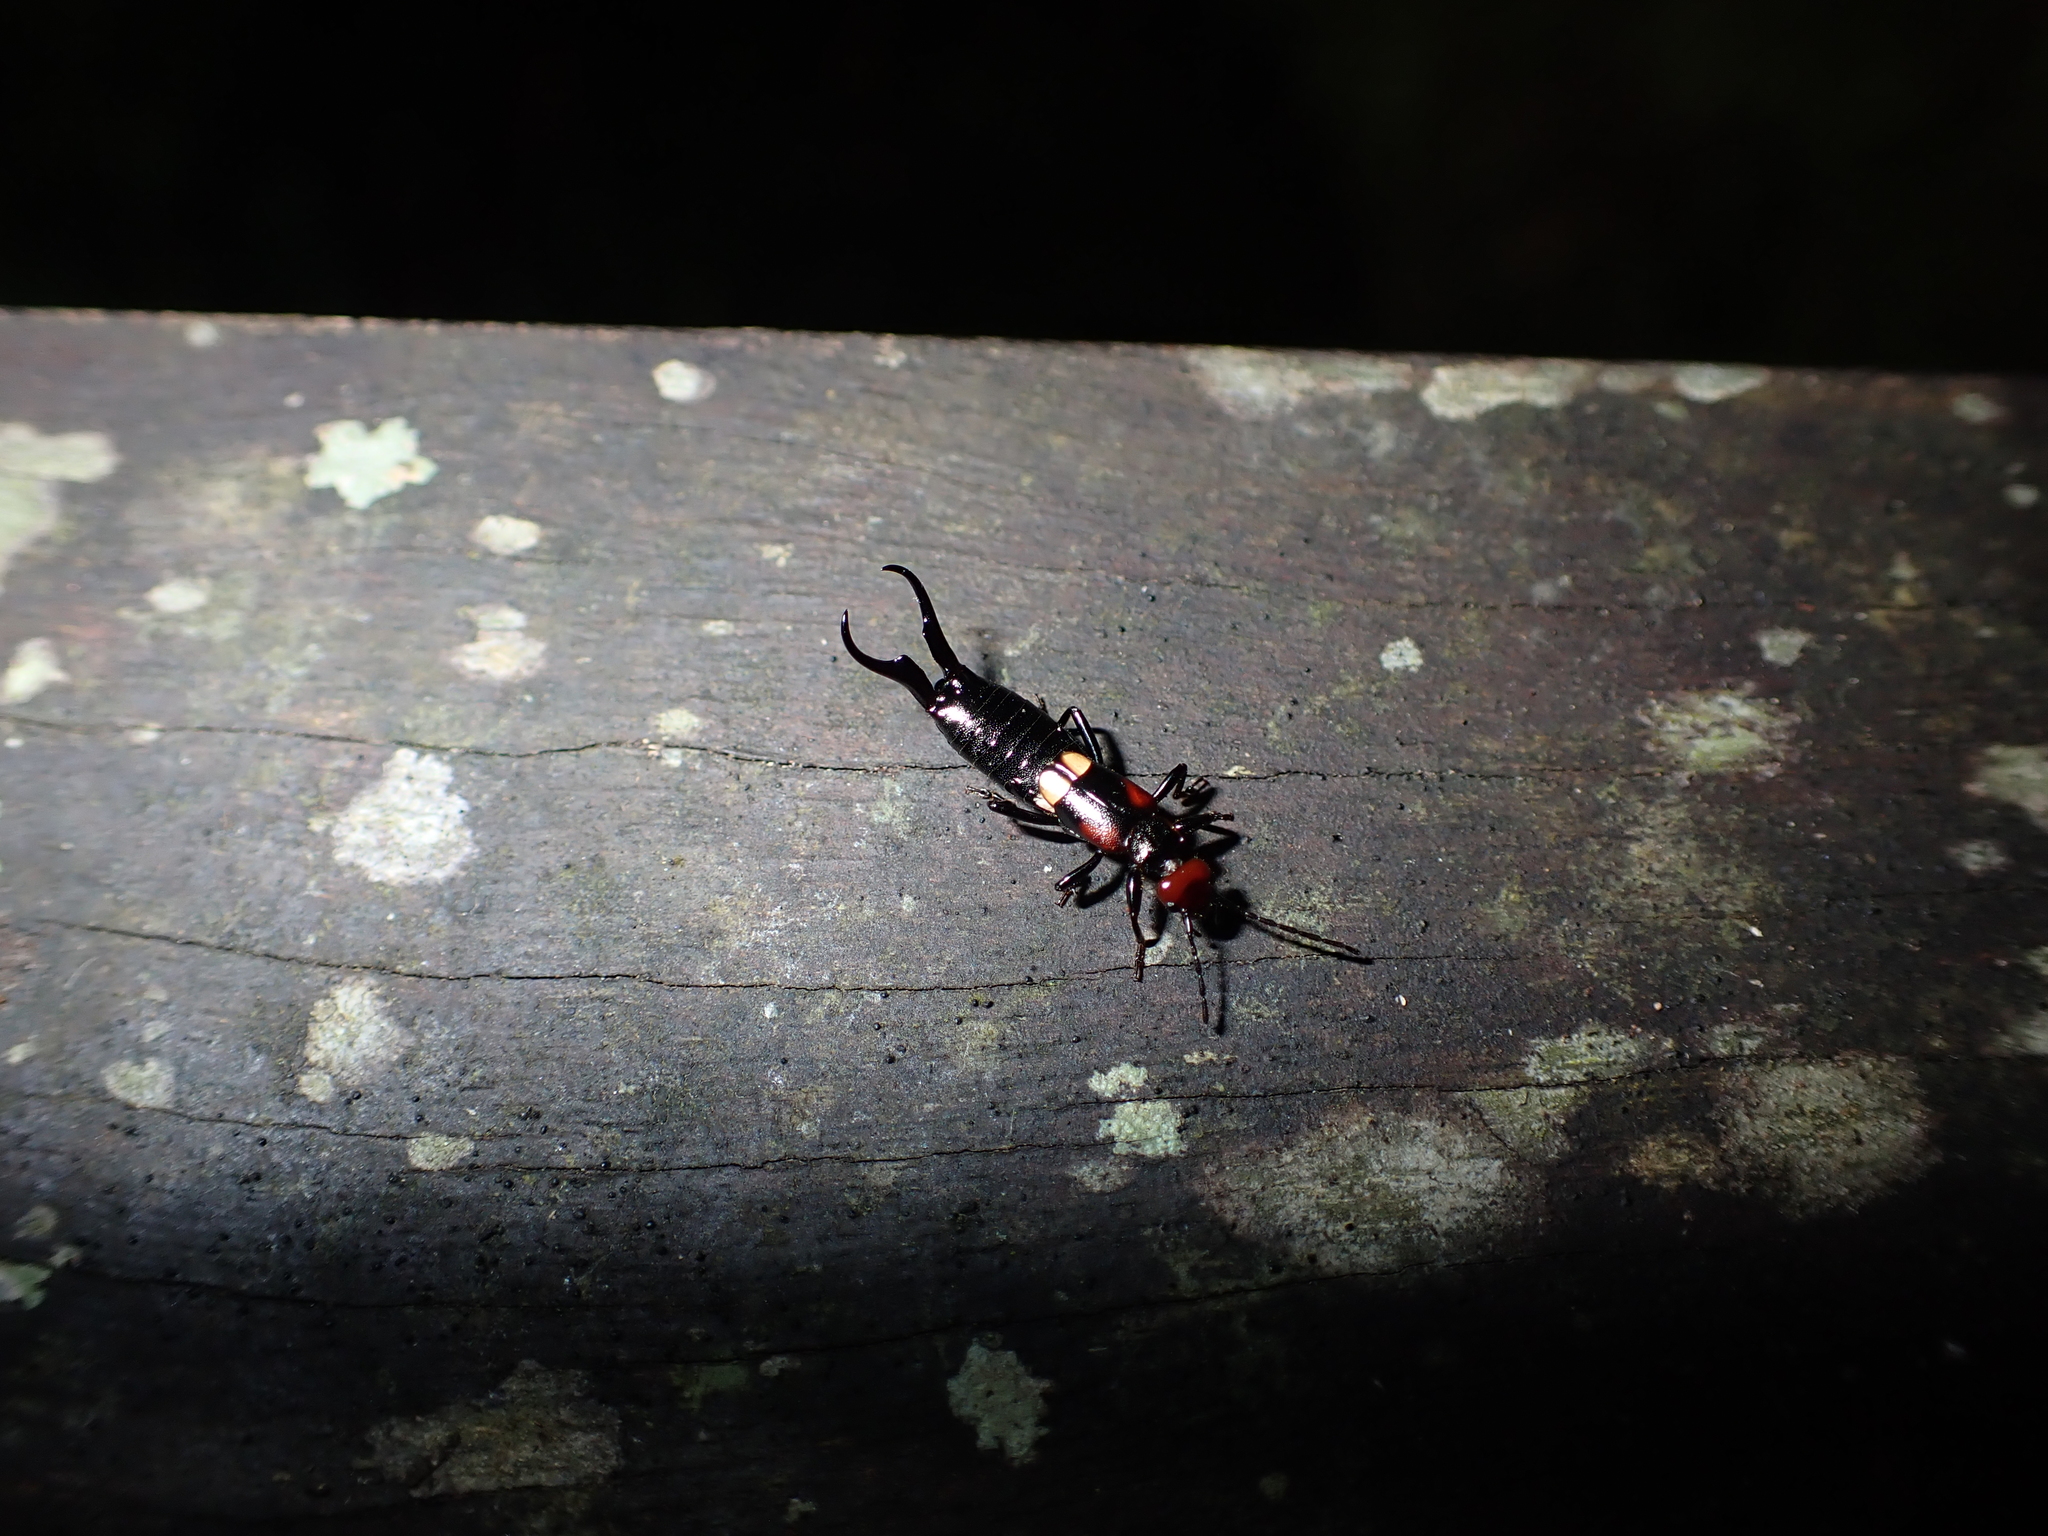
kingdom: Animalia
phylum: Arthropoda
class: Insecta
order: Dermaptera
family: Forficulidae
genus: Pterygida
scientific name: Pterygida ornaticapitata
